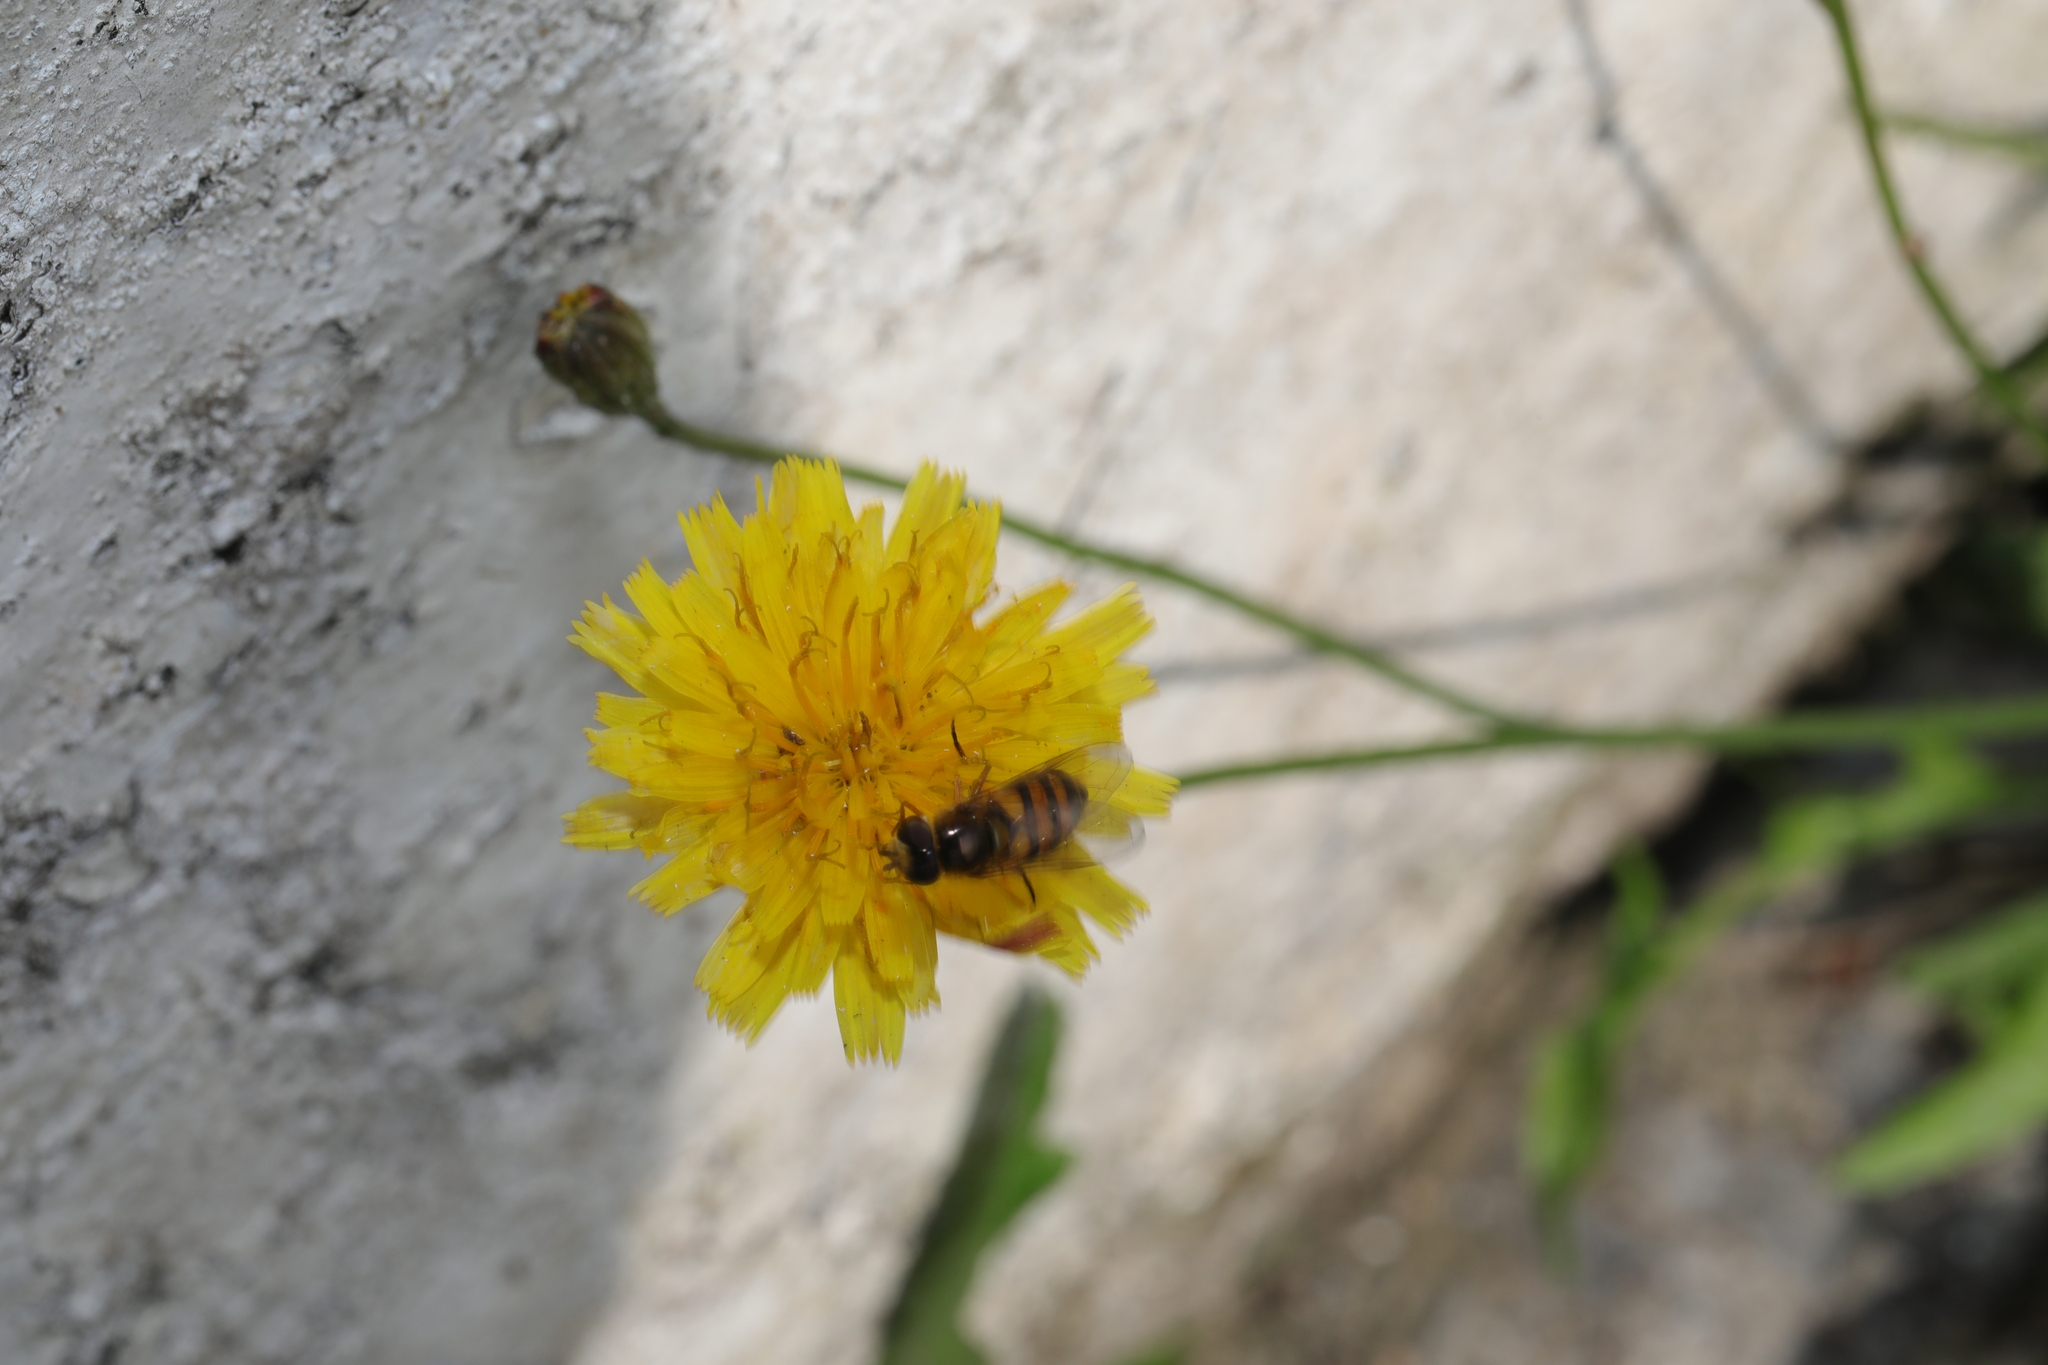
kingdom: Animalia
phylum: Arthropoda
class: Insecta
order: Diptera
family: Syrphidae
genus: Syrphus
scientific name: Syrphus
